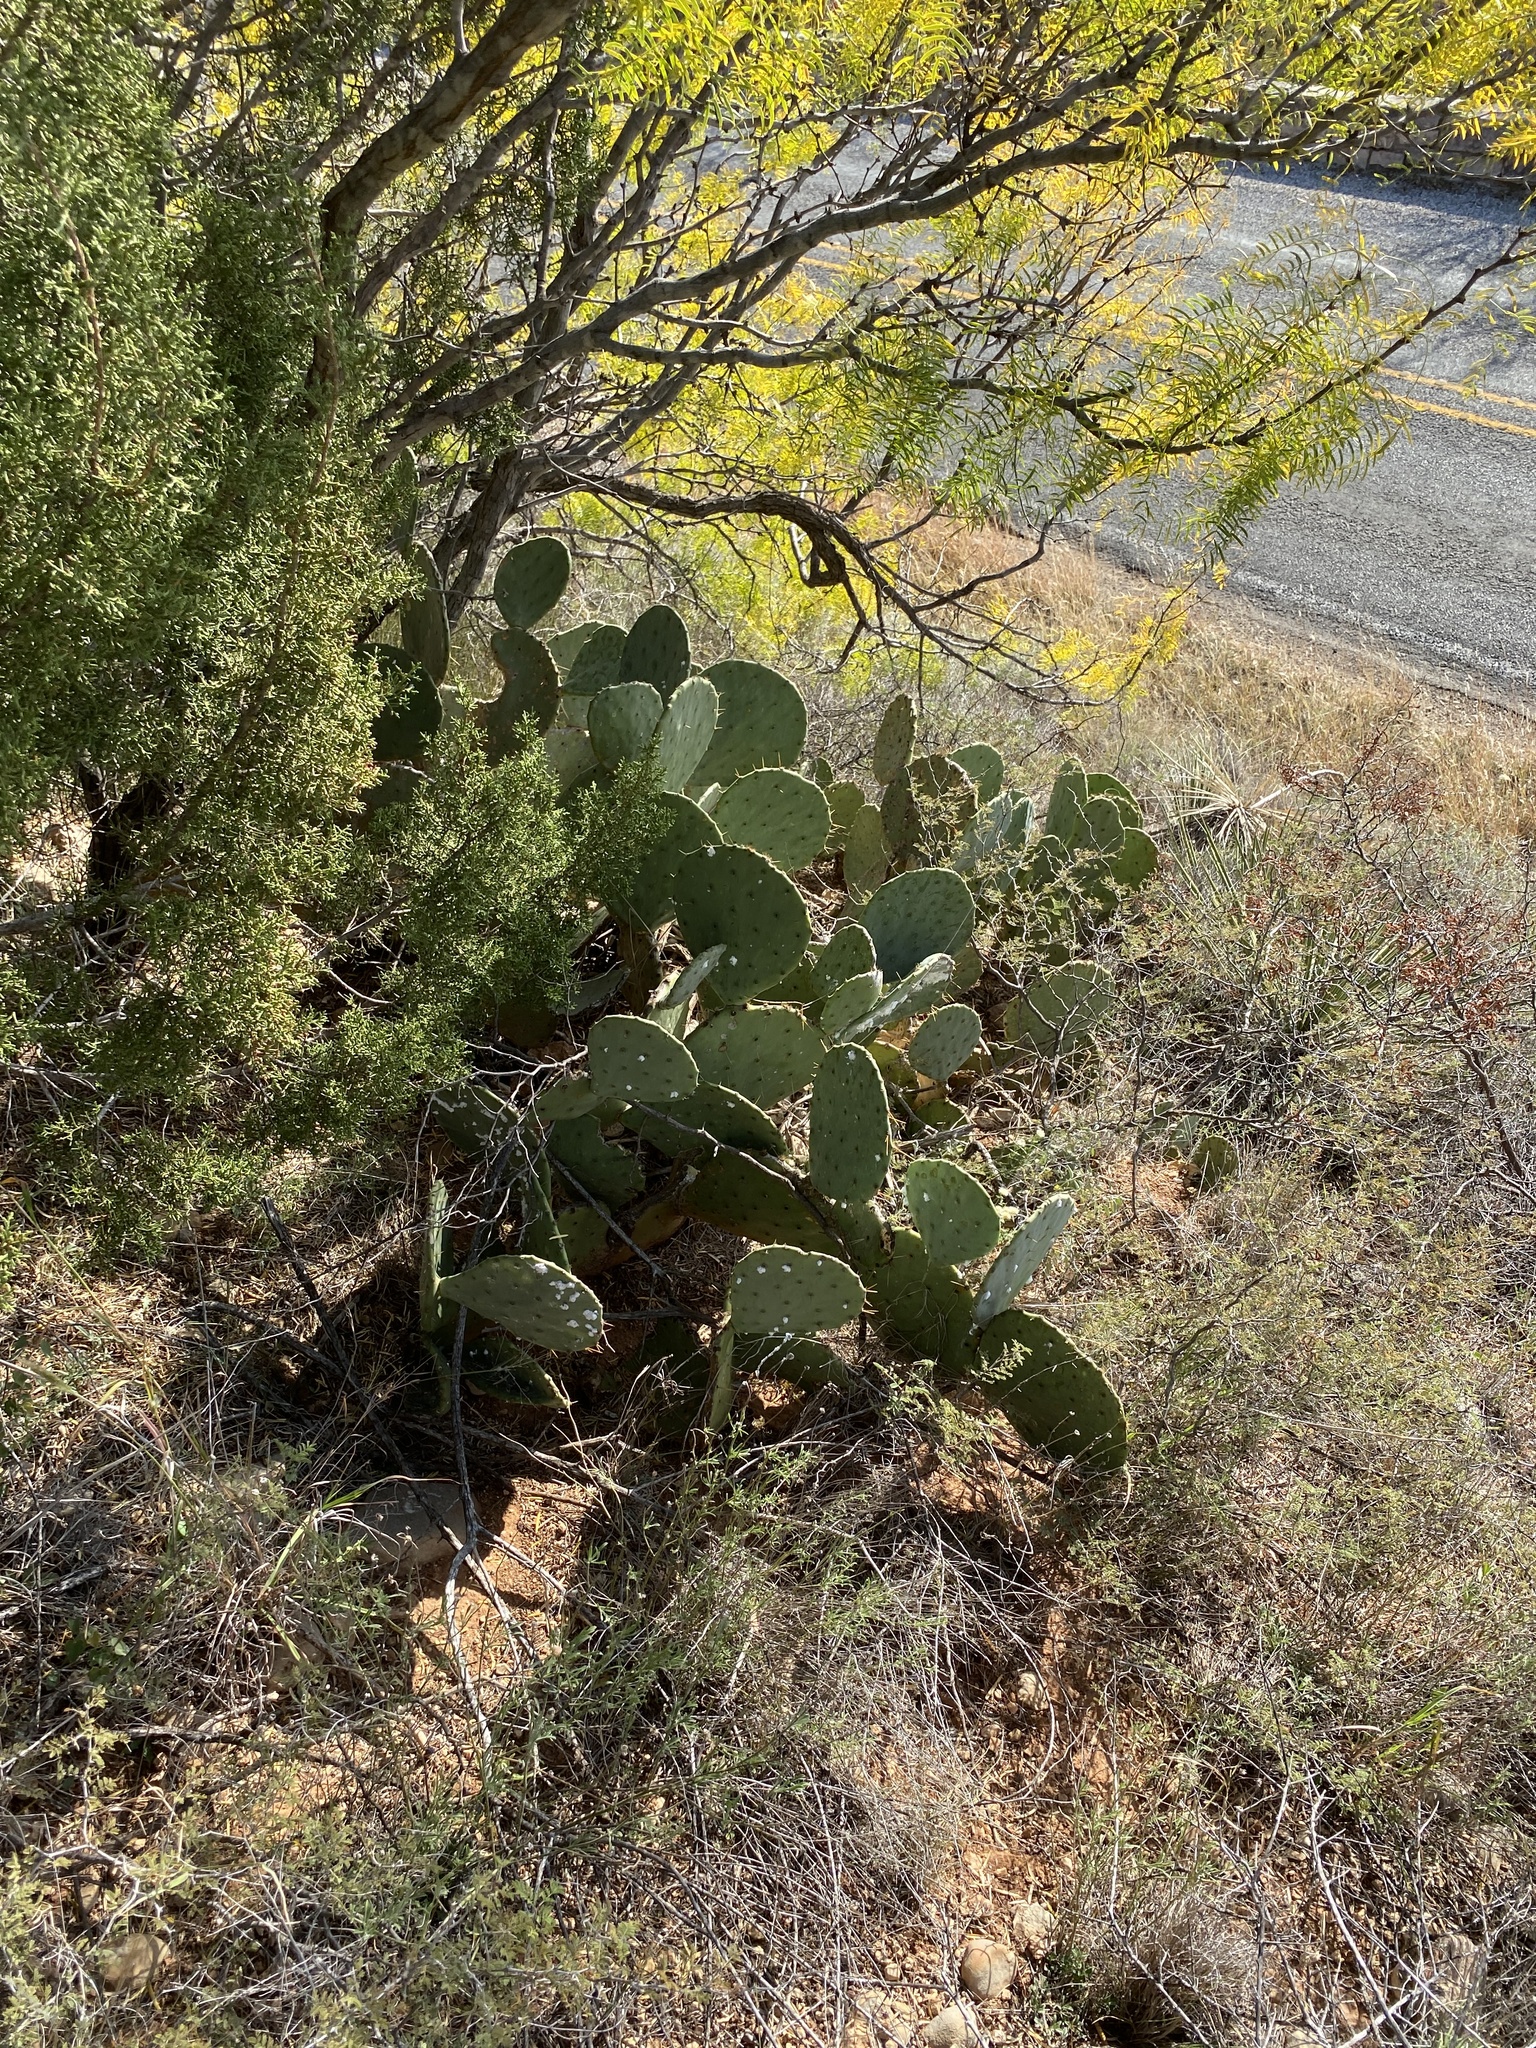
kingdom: Plantae
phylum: Tracheophyta
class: Magnoliopsida
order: Caryophyllales
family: Cactaceae
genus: Opuntia
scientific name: Opuntia engelmannii
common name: Cactus-apple
